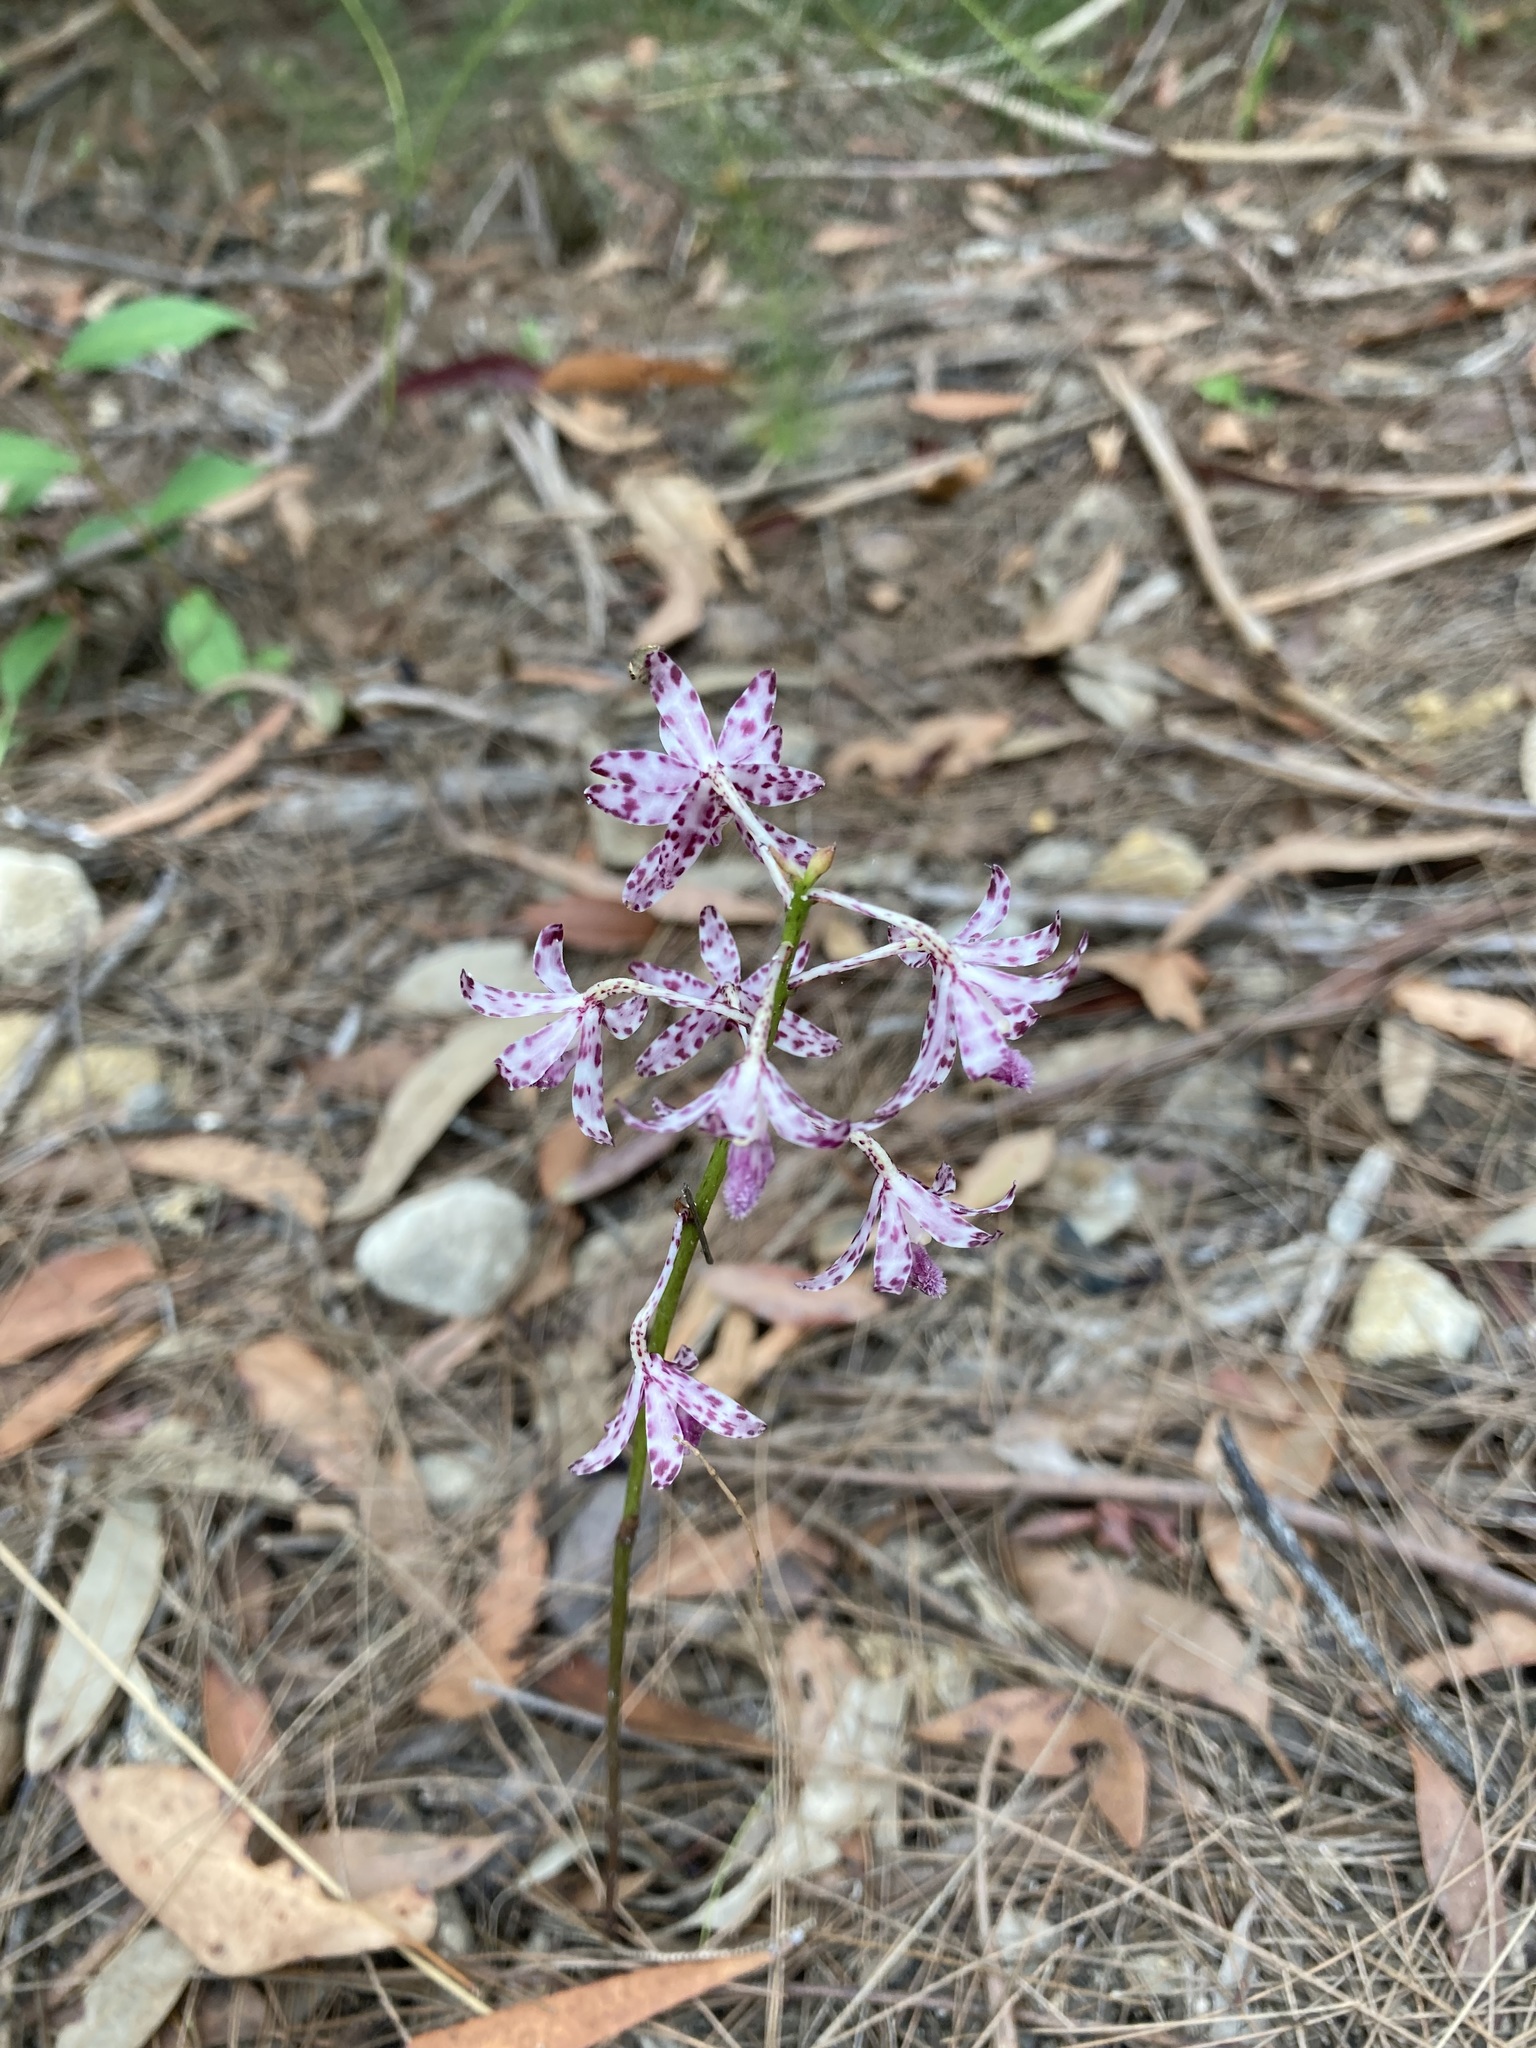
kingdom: Plantae
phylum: Tracheophyta
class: Liliopsida
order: Asparagales
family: Orchidaceae
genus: Dipodium
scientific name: Dipodium variegatum
